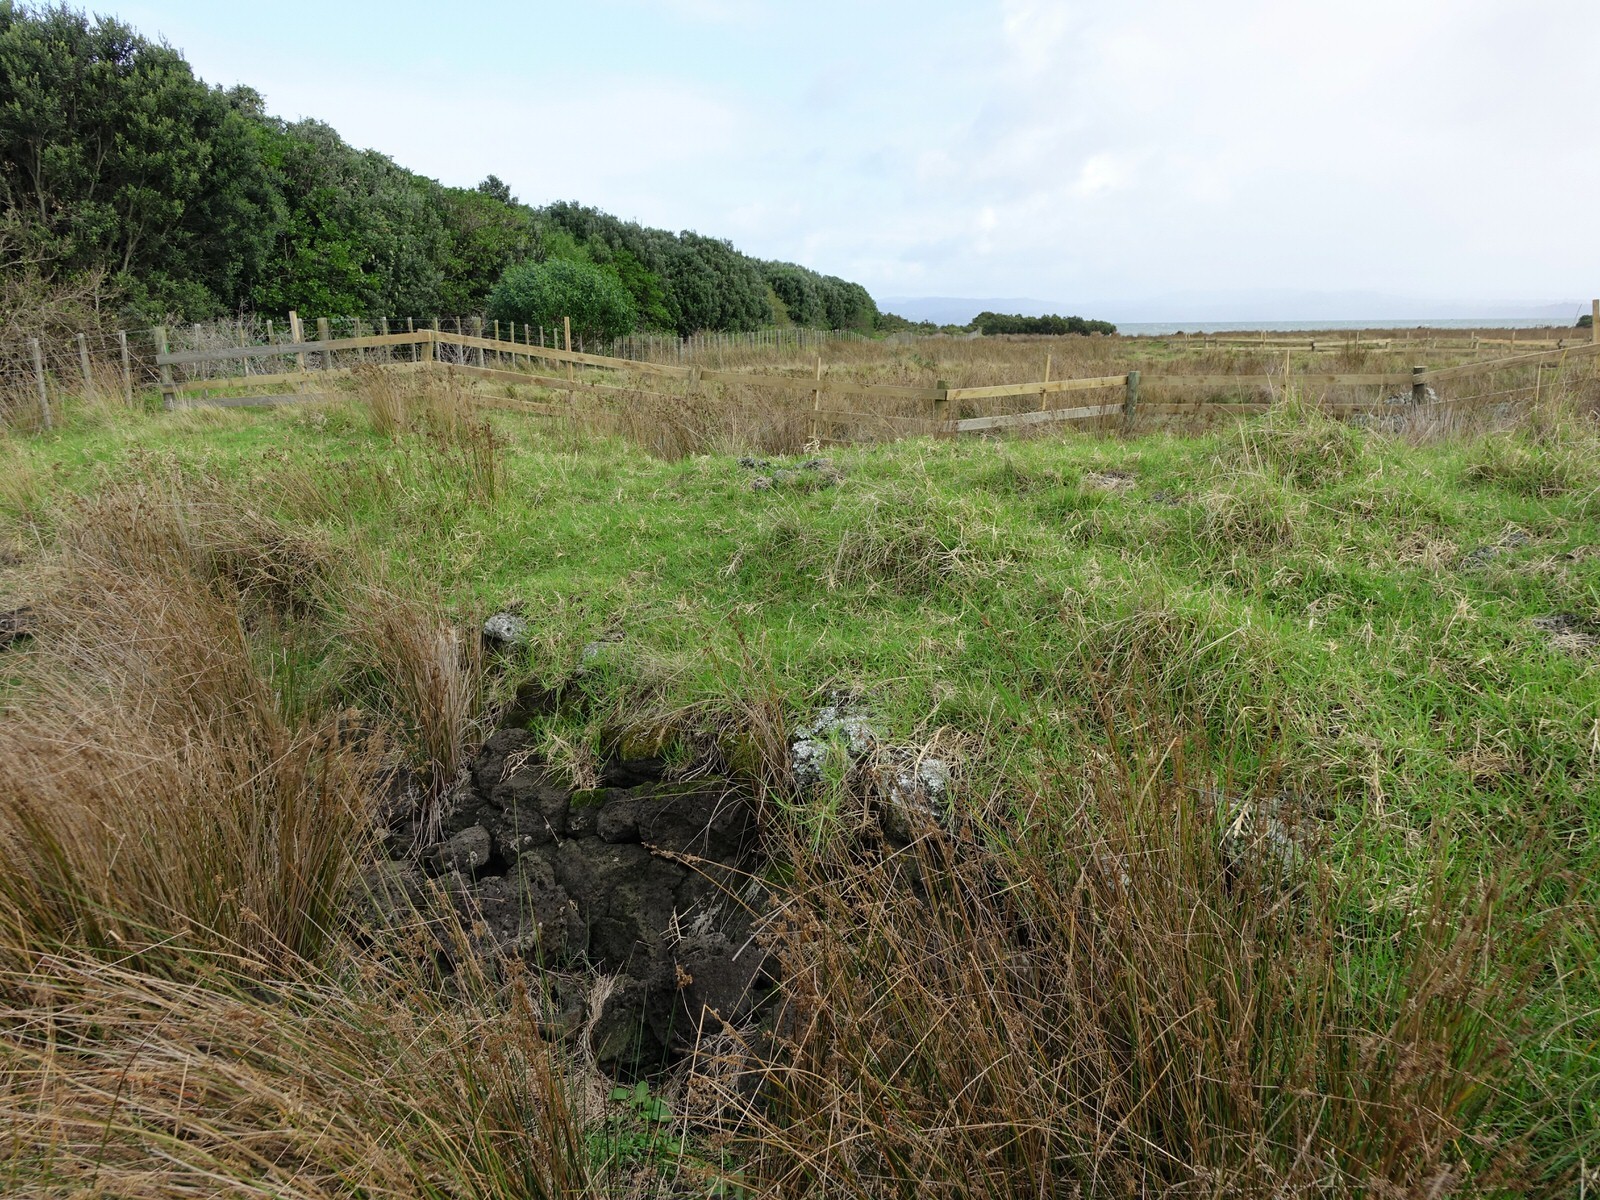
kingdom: Plantae
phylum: Tracheophyta
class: Magnoliopsida
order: Caryophyllales
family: Amaranthaceae
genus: Alternanthera
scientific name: Alternanthera nahui
